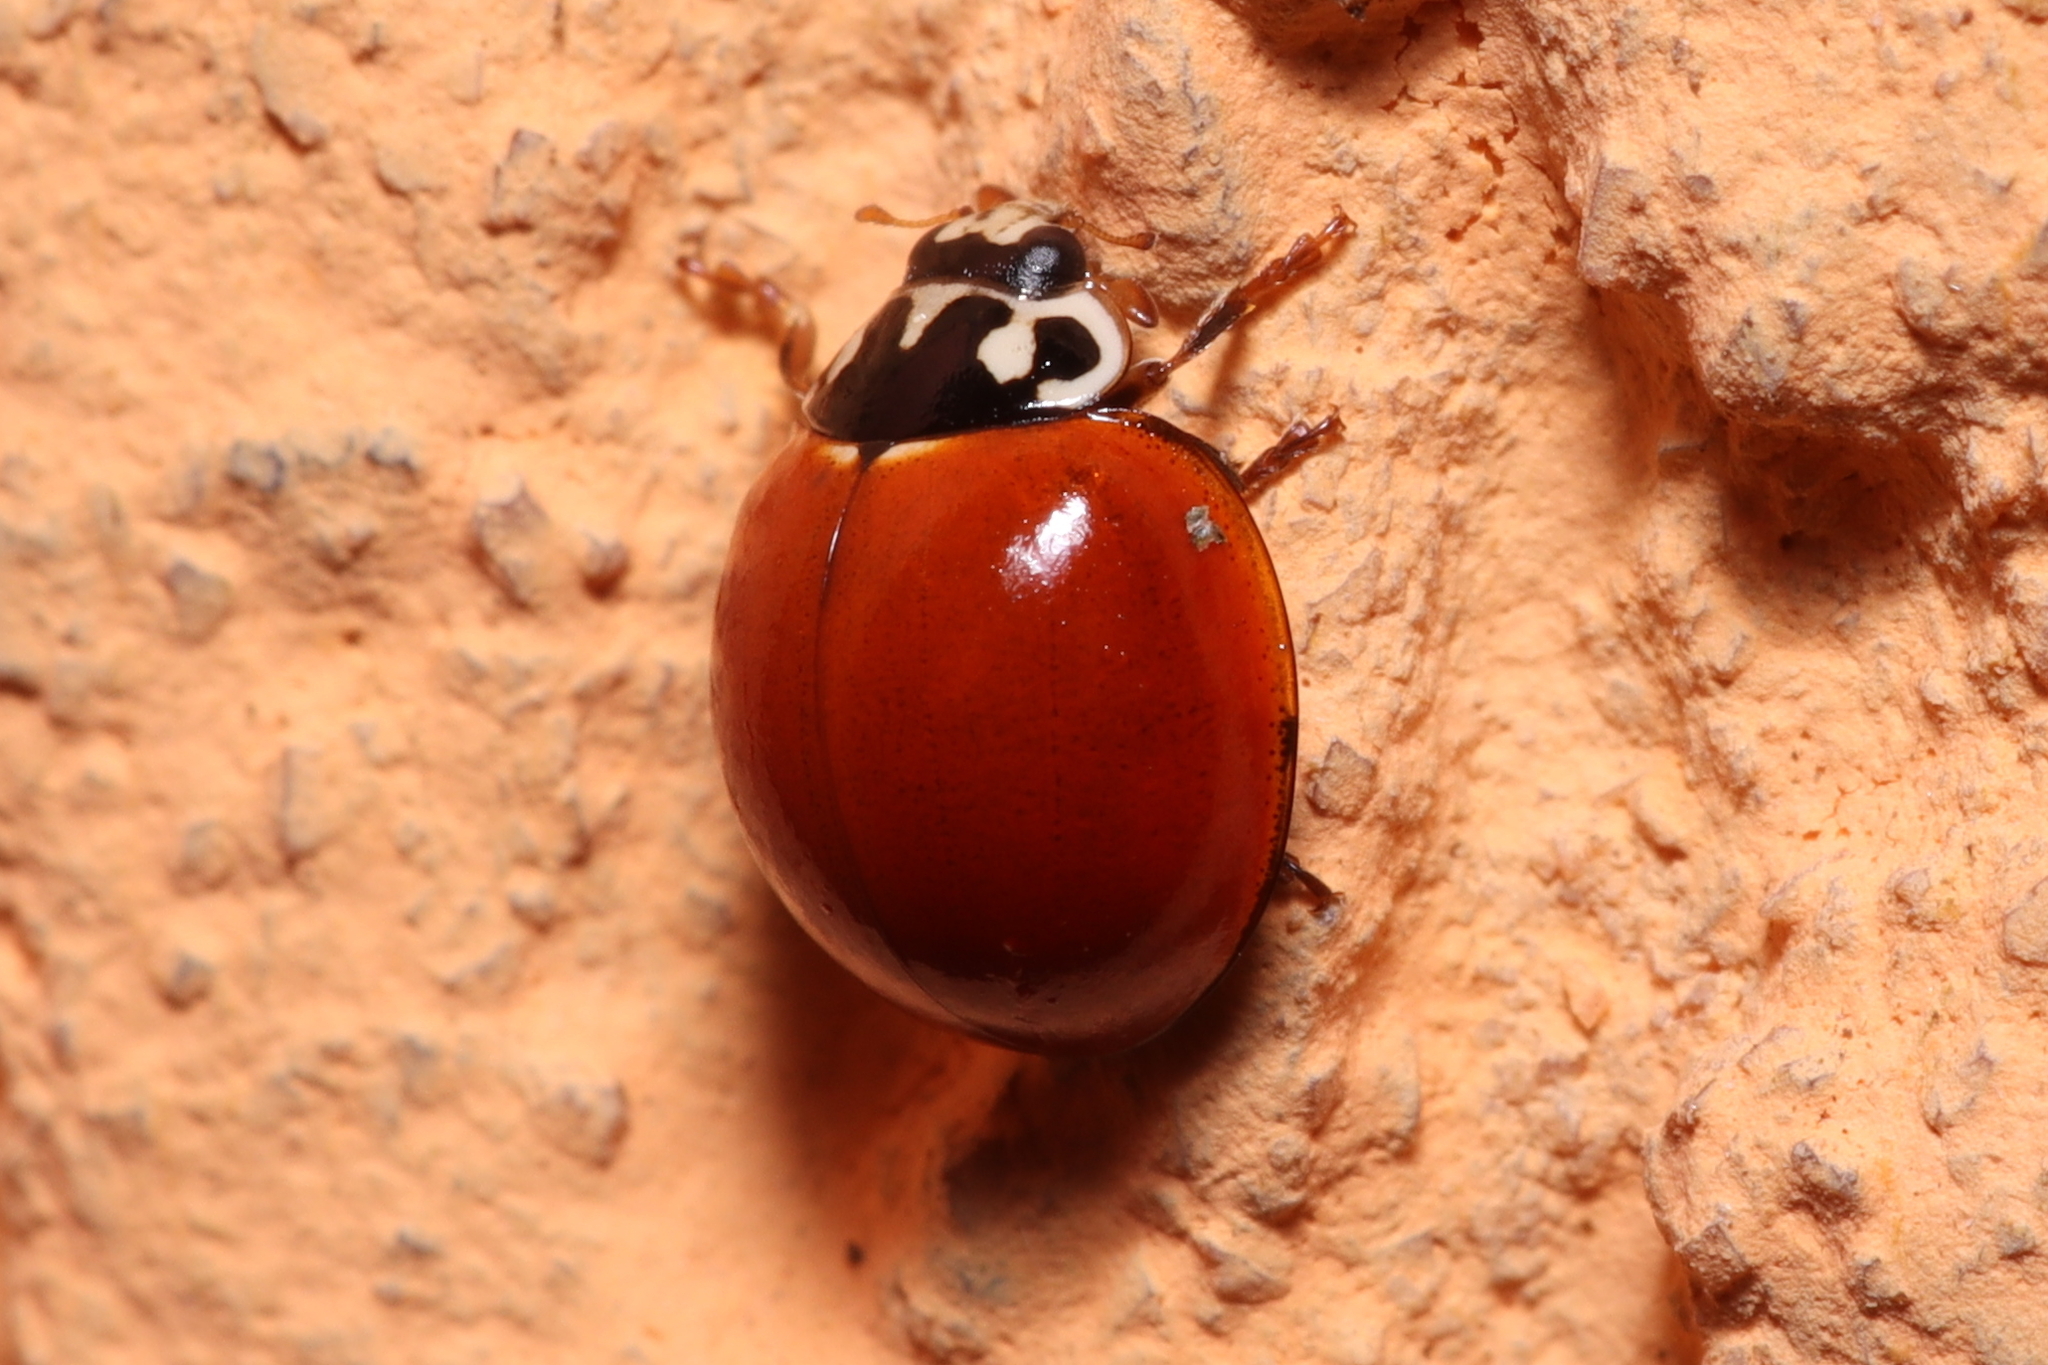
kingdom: Animalia
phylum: Arthropoda
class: Insecta
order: Coleoptera
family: Coccinellidae
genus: Cycloneda
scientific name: Cycloneda sanguinea
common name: Ladybird beetle
